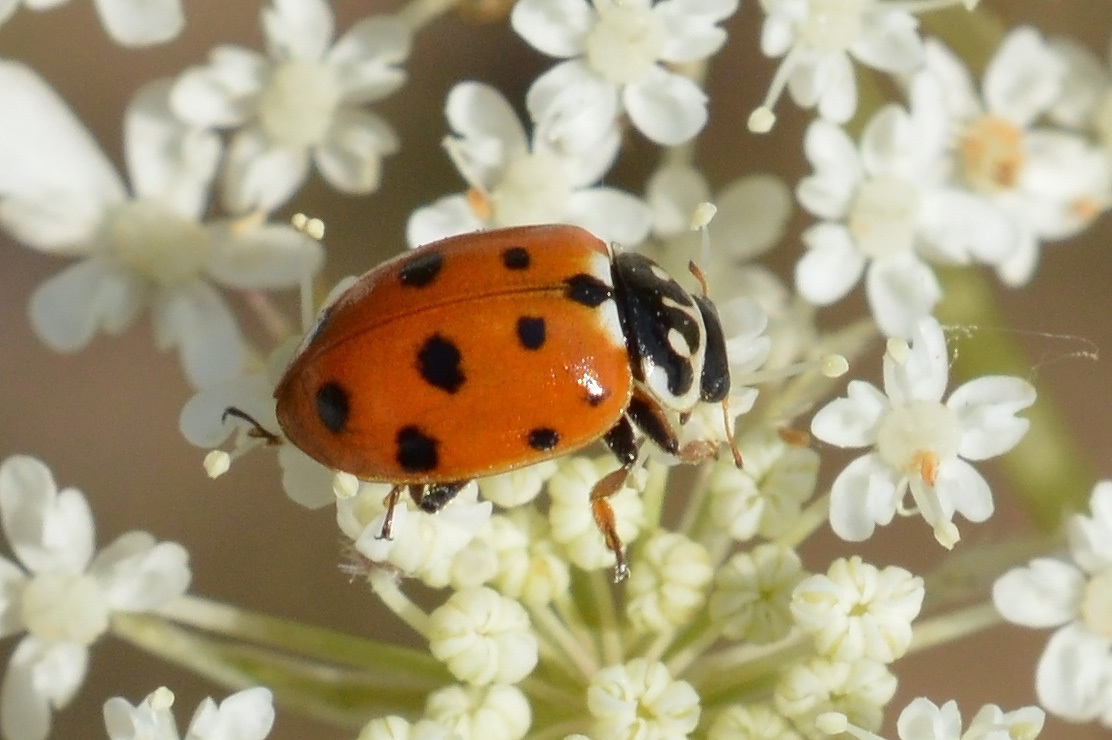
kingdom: Animalia
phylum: Arthropoda
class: Insecta
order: Coleoptera
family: Coccinellidae
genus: Hippodamia
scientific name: Hippodamia variegata
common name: Ladybird beetle
